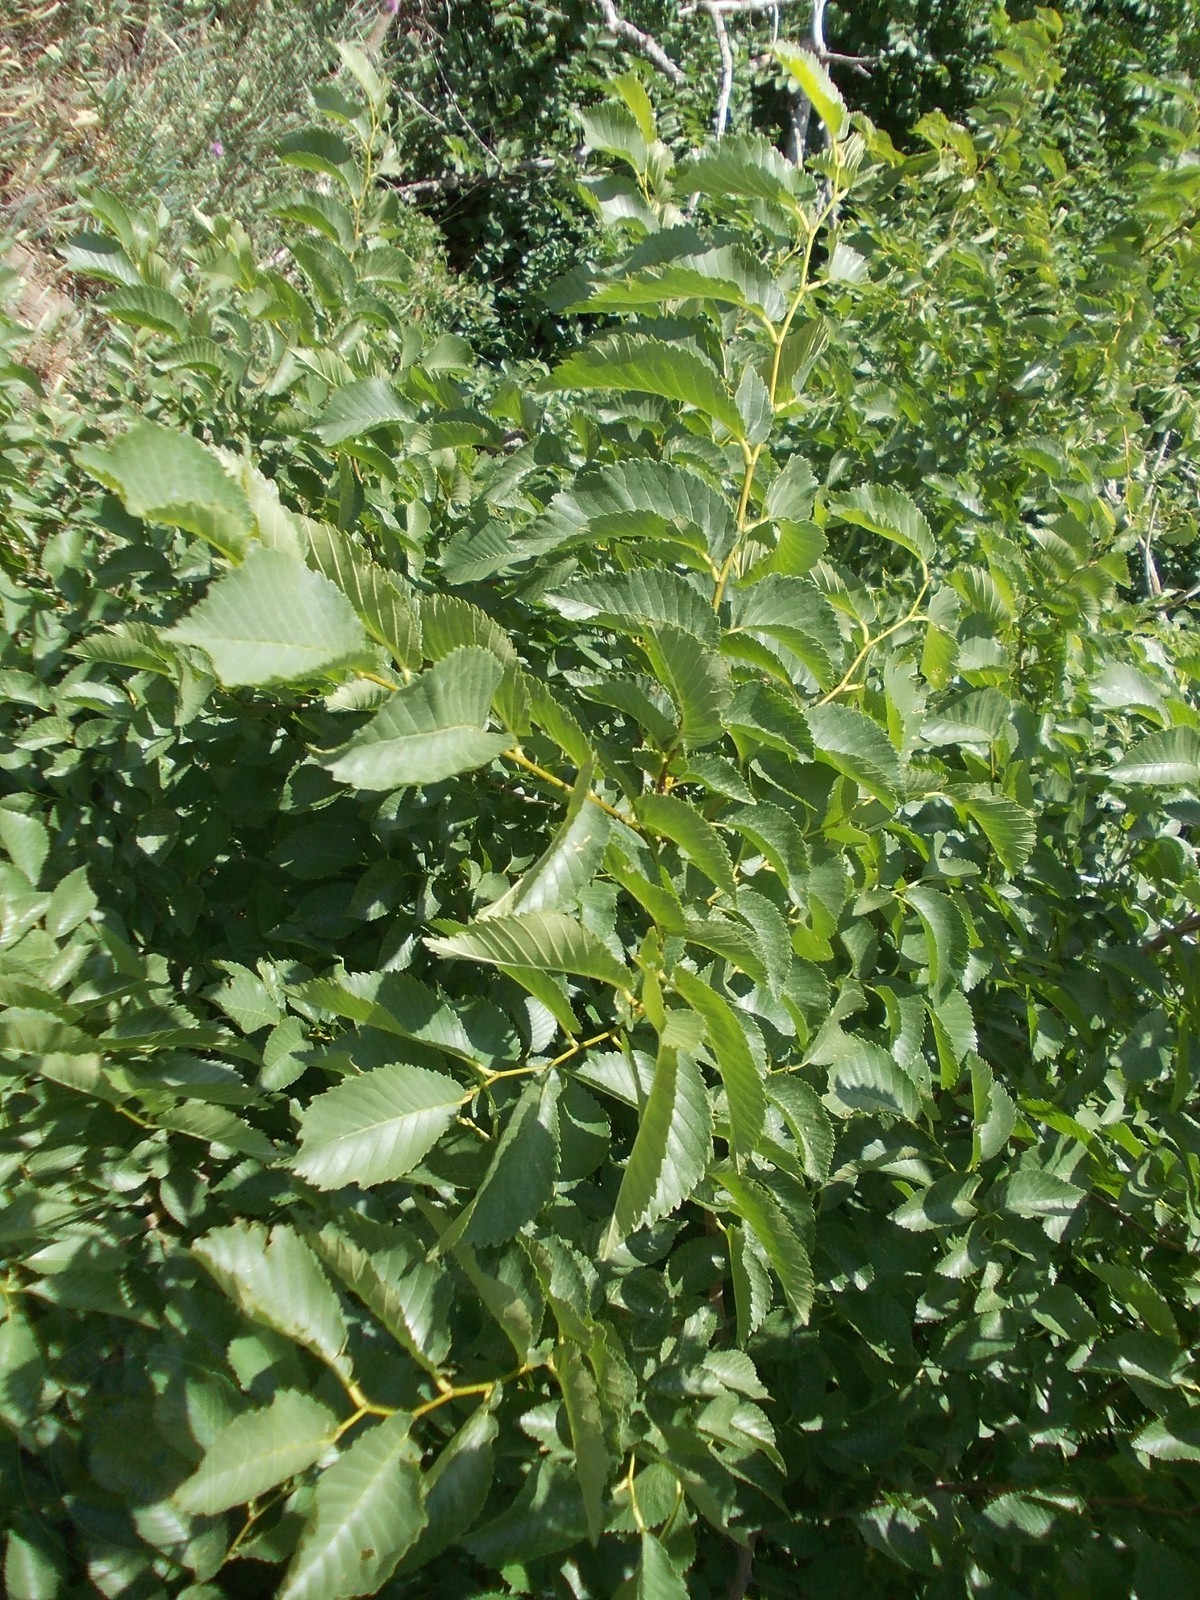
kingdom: Plantae
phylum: Tracheophyta
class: Magnoliopsida
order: Rosales
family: Ulmaceae
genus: Ulmus
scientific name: Ulmus minor
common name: Small-leaved elm
